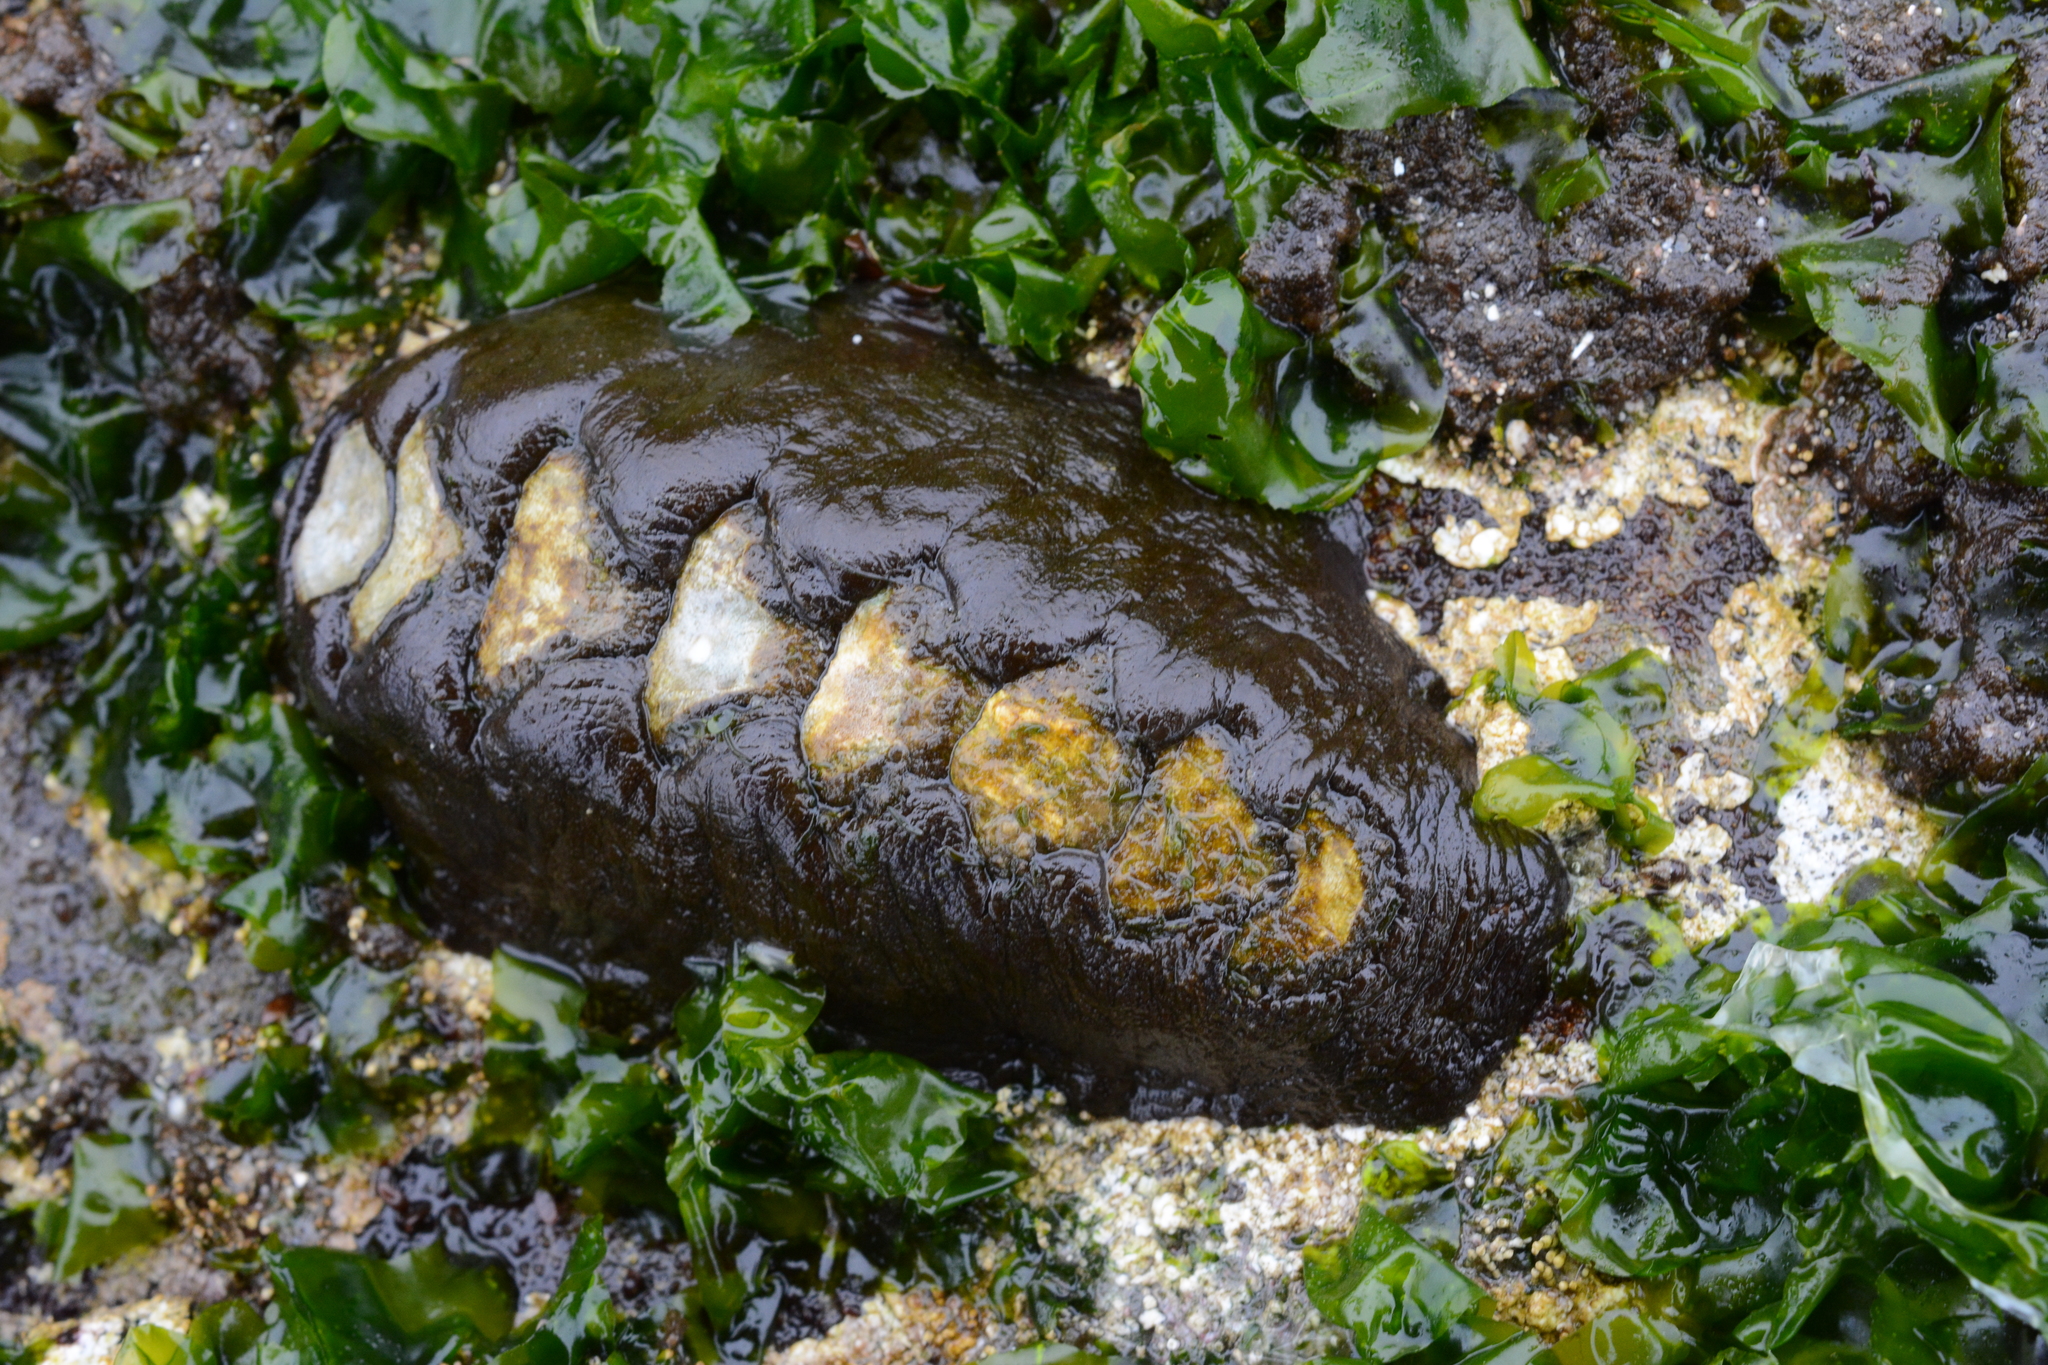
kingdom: Animalia
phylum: Mollusca
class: Polyplacophora
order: Chitonida
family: Mopaliidae
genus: Katharina
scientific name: Katharina tunicata
